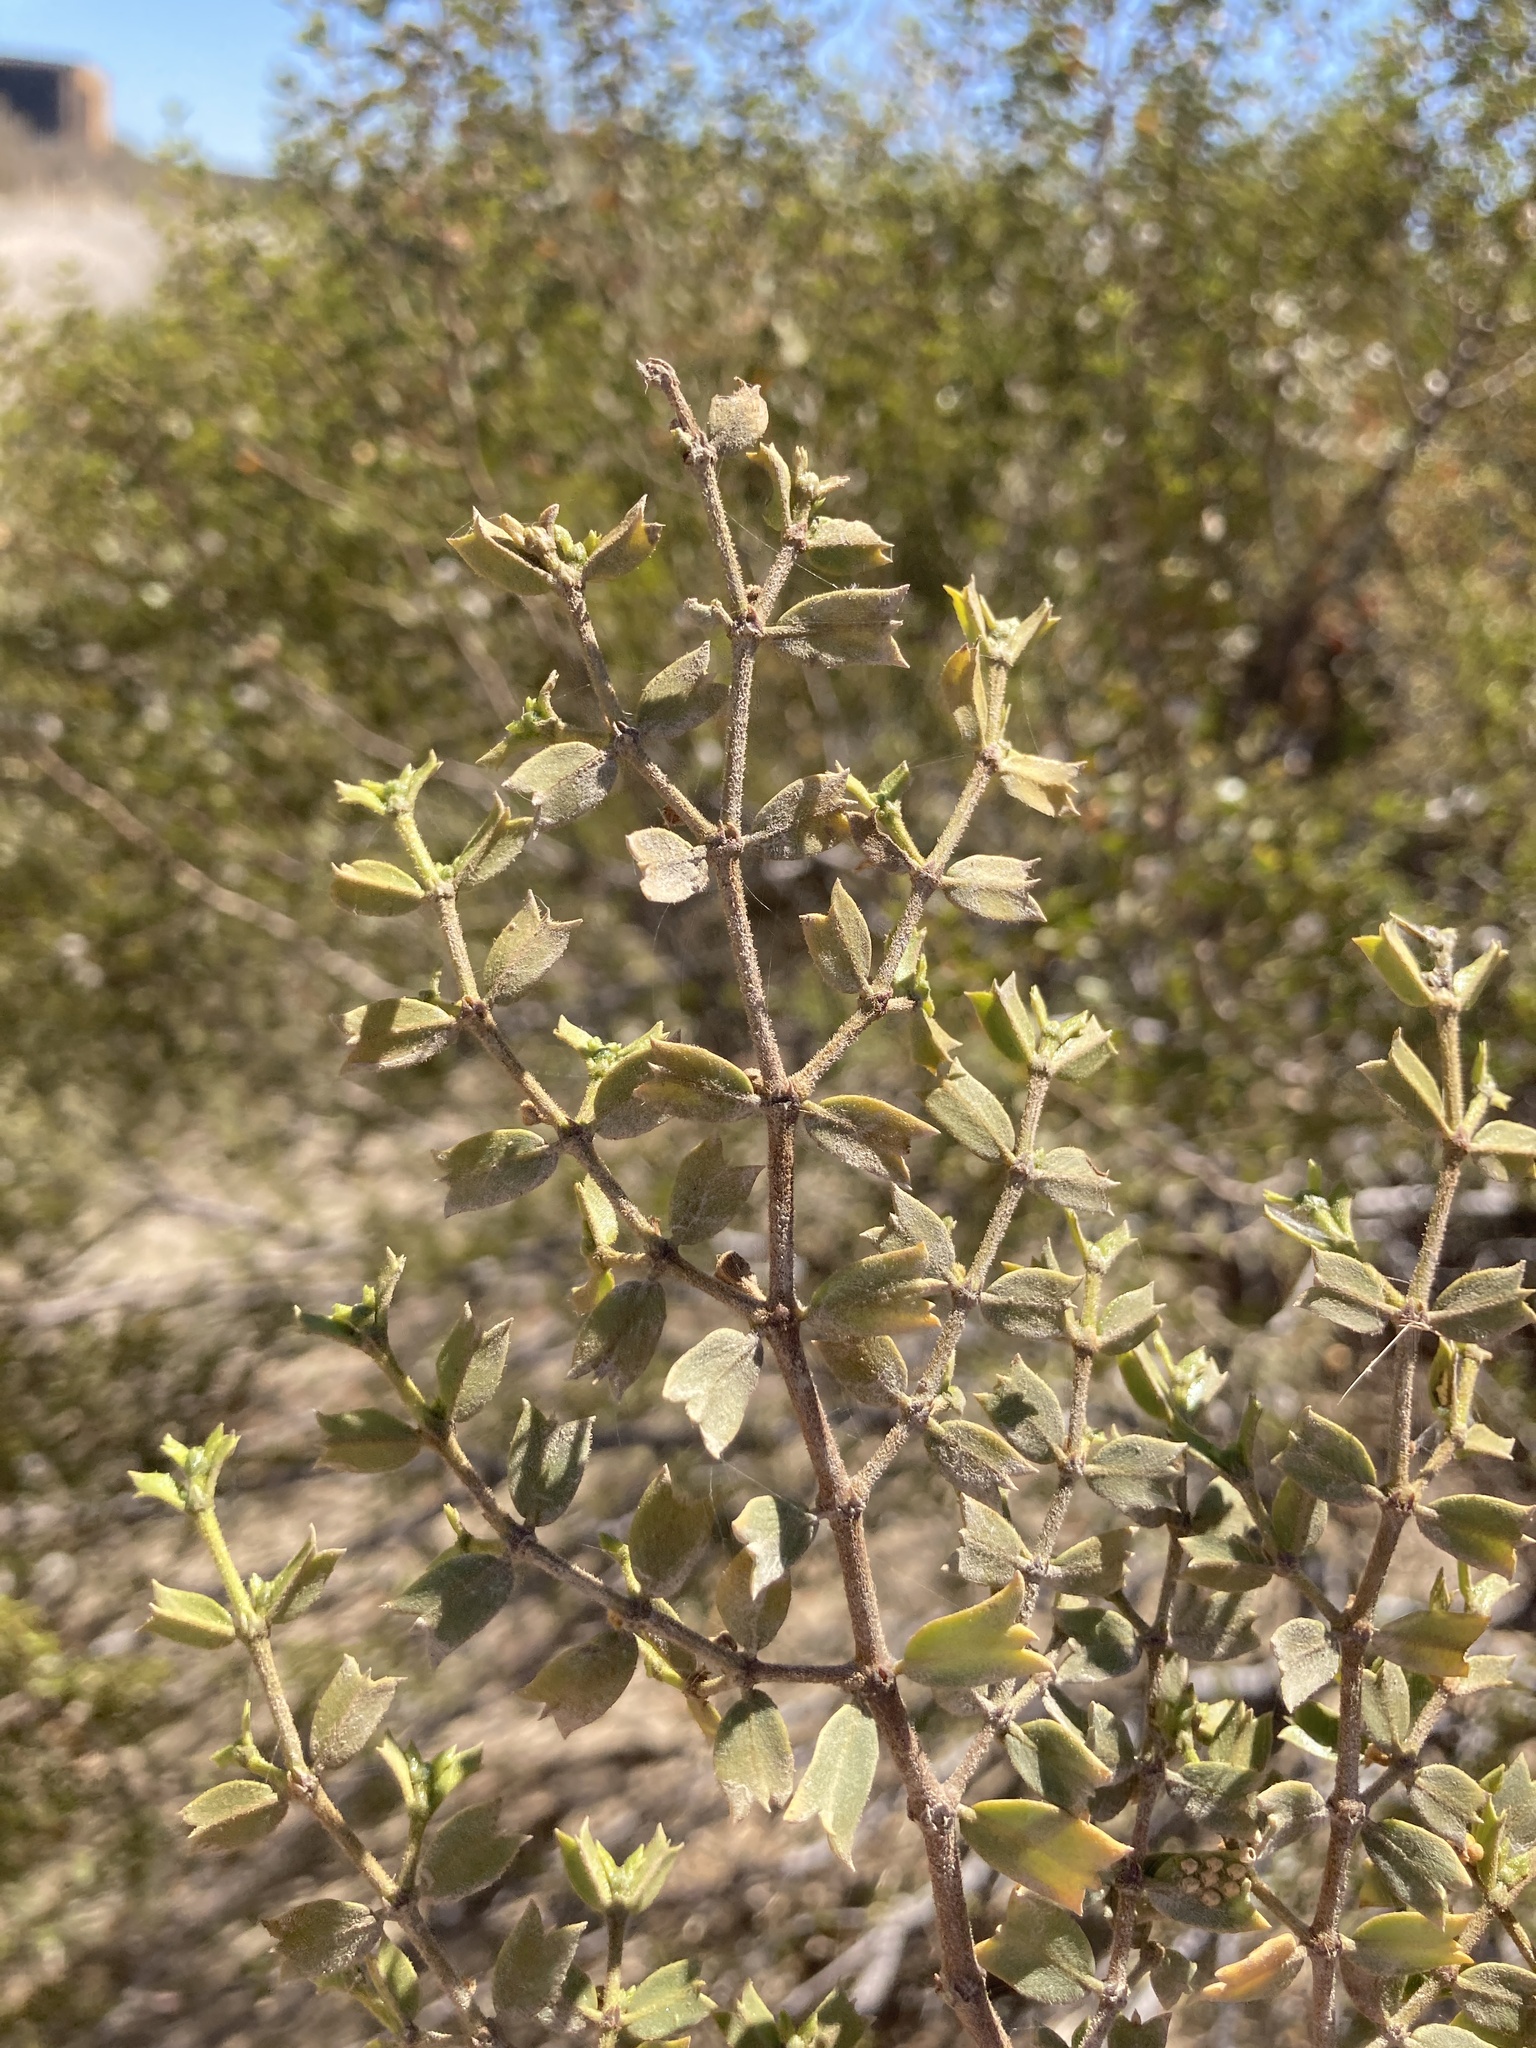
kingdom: Plantae
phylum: Tracheophyta
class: Magnoliopsida
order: Zygophyllales
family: Zygophyllaceae
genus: Larrea
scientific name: Larrea cuneifolia
